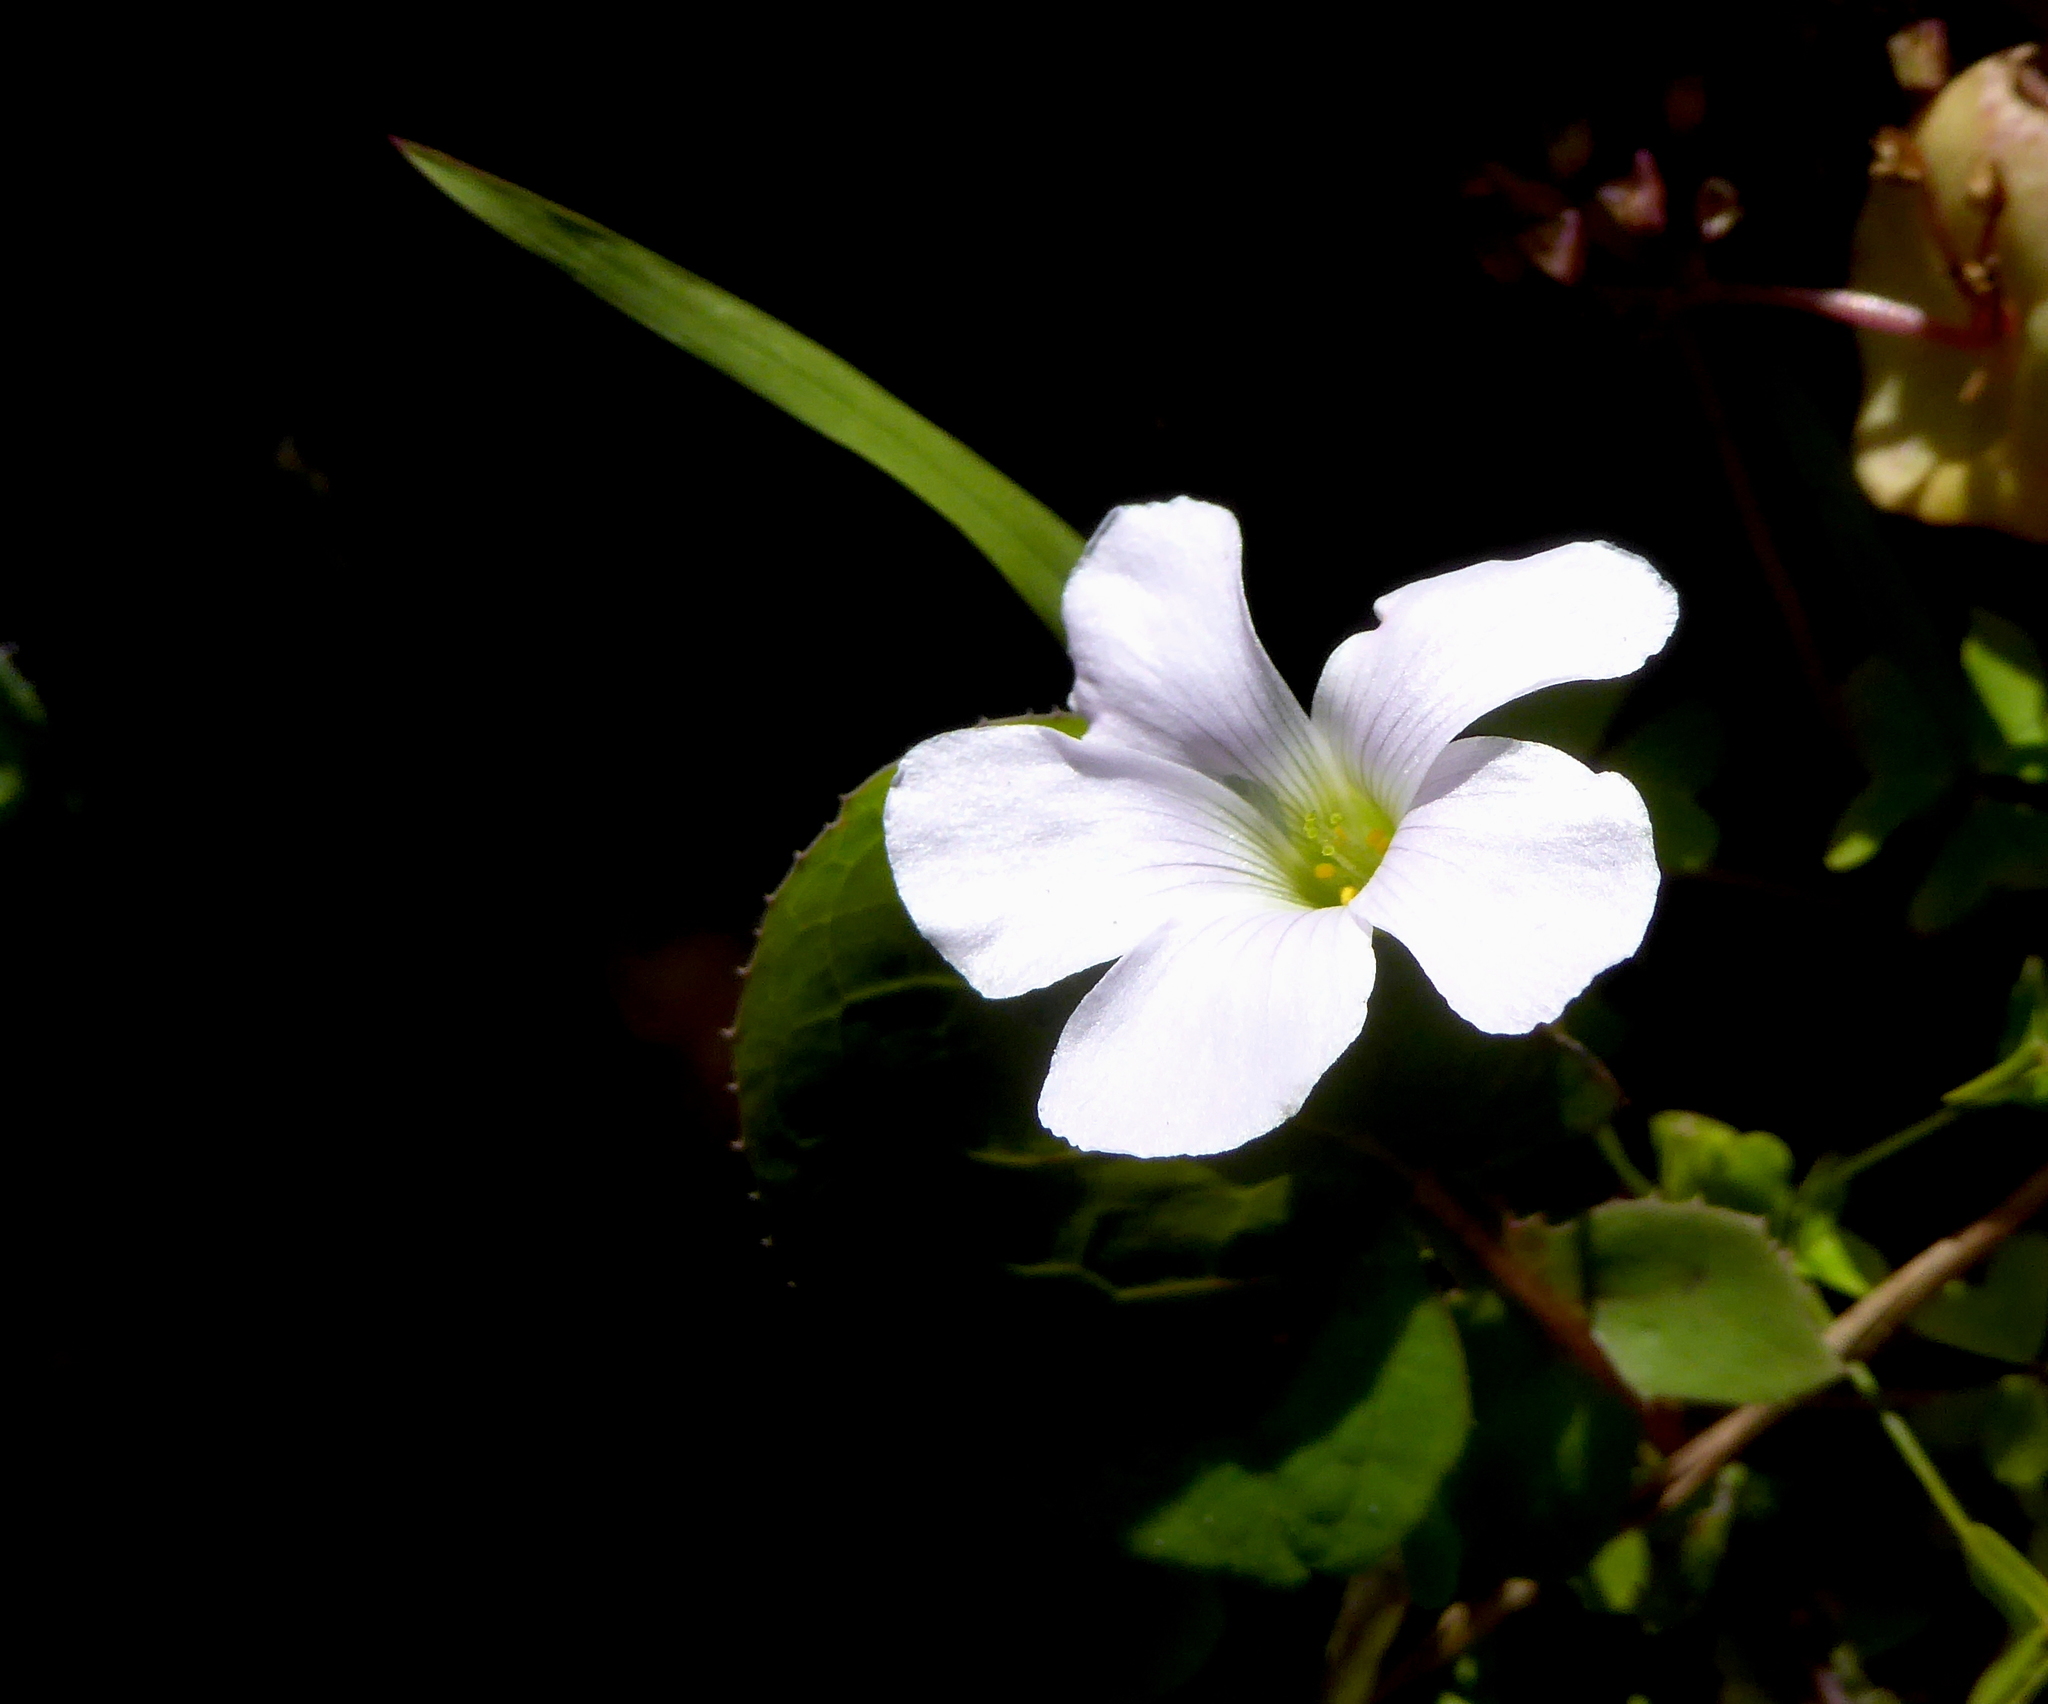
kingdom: Plantae
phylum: Tracheophyta
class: Magnoliopsida
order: Oxalidales
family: Oxalidaceae
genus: Oxalis
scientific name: Oxalis incarnata
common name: Pale pink-sorrel
